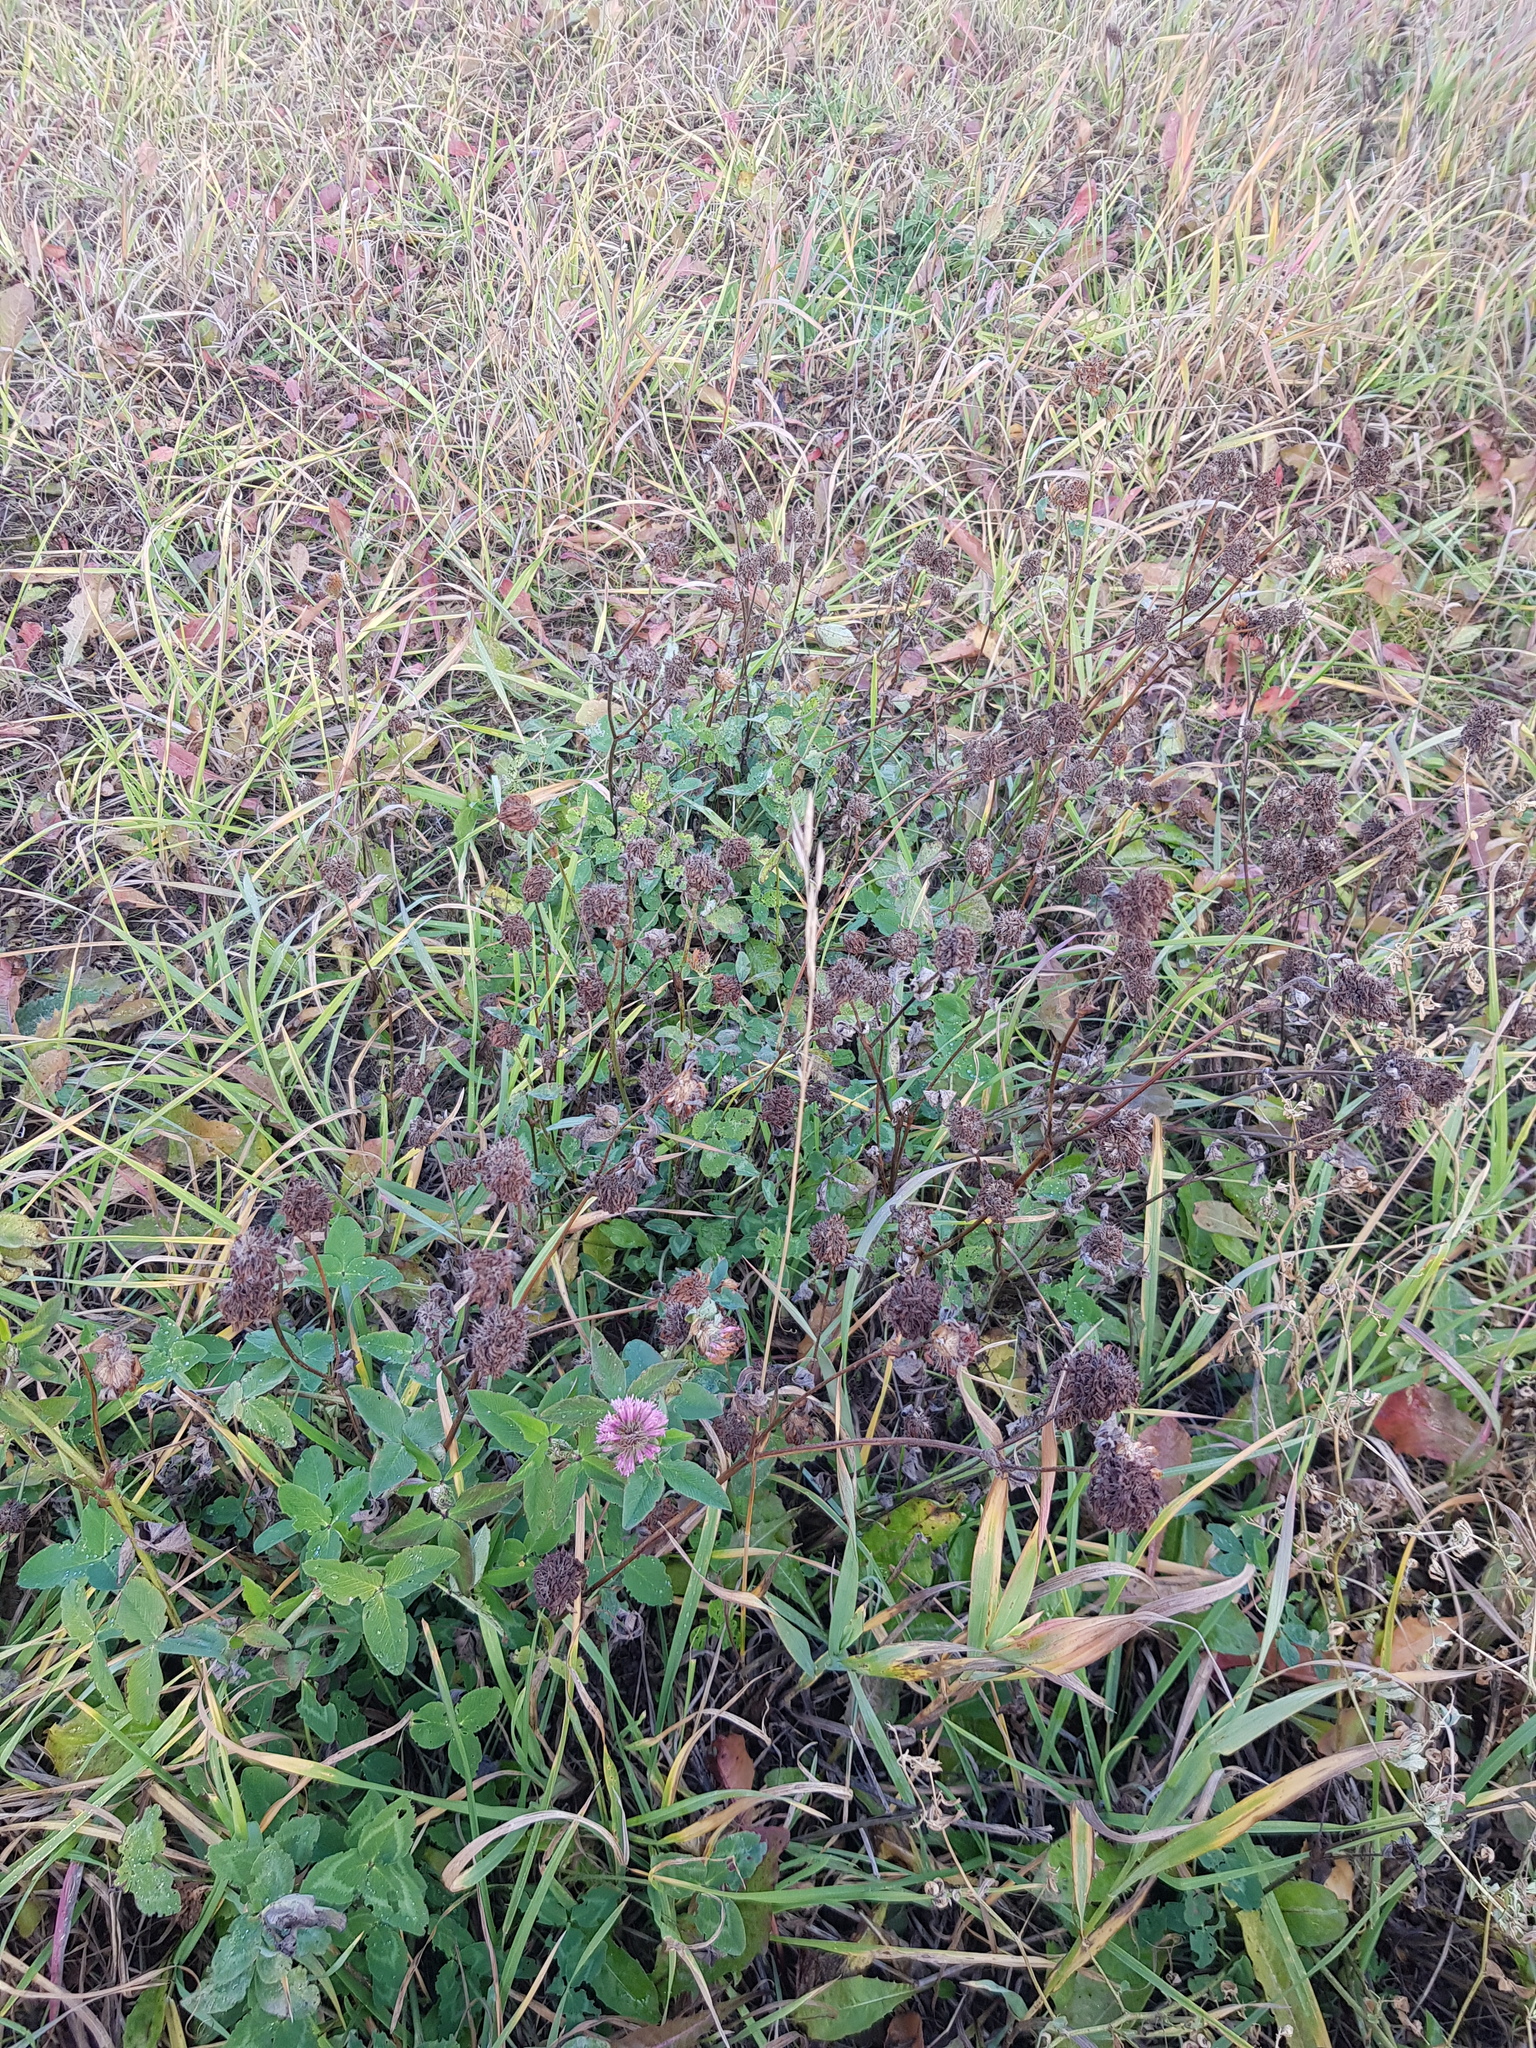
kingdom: Plantae
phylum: Tracheophyta
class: Magnoliopsida
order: Fabales
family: Fabaceae
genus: Trifolium
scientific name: Trifolium pratense
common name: Red clover
